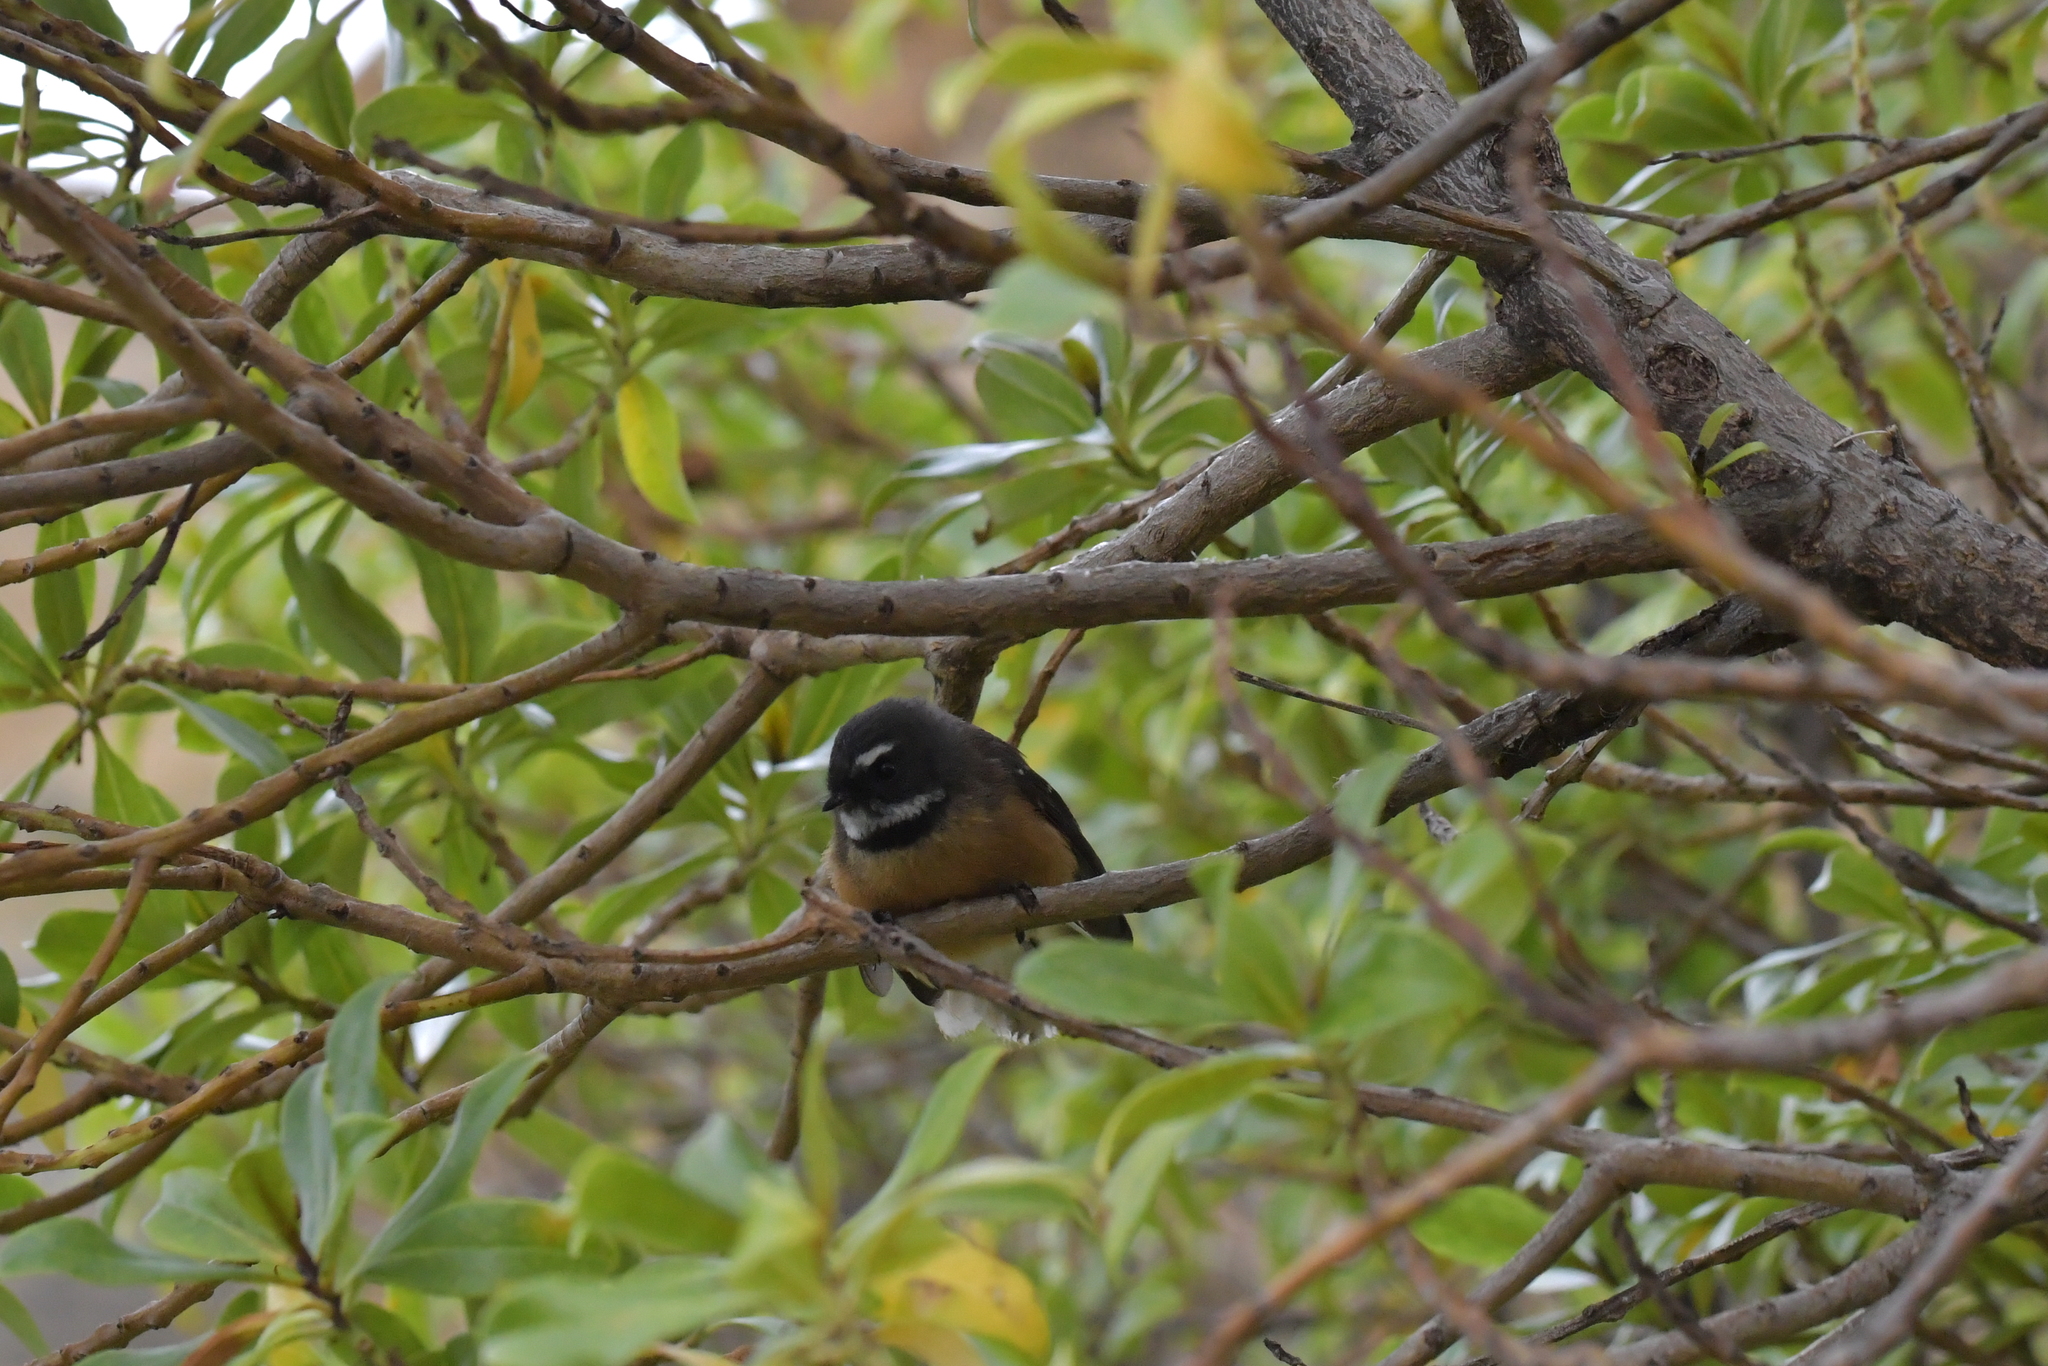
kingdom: Animalia
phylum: Chordata
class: Aves
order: Passeriformes
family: Rhipiduridae
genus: Rhipidura
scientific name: Rhipidura fuliginosa
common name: New zealand fantail
